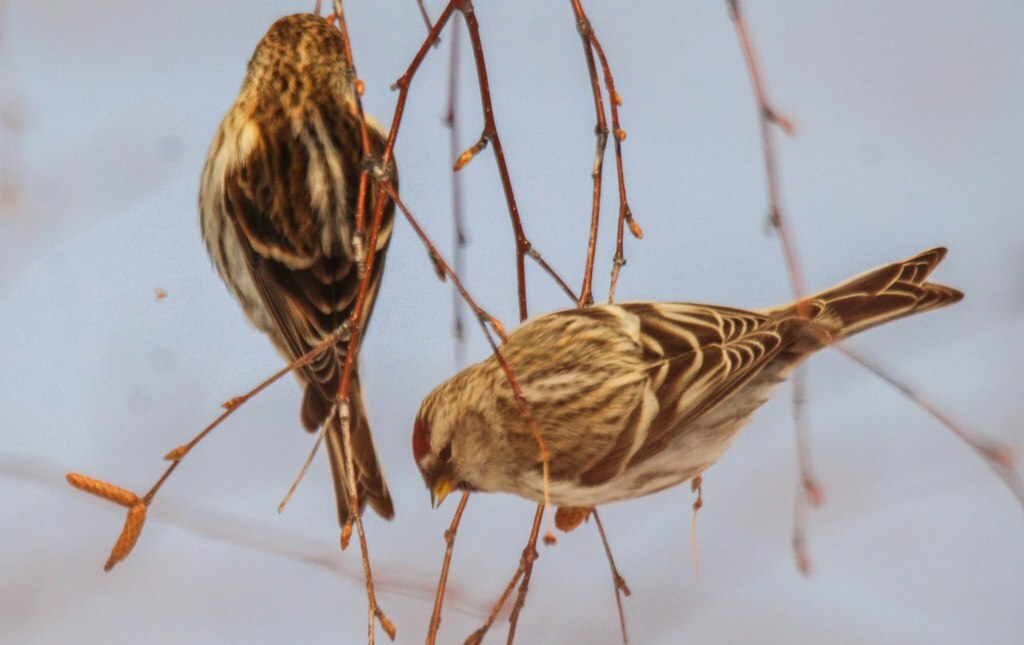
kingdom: Animalia
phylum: Chordata
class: Aves
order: Passeriformes
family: Fringillidae
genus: Acanthis
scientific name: Acanthis hornemanni
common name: Arctic redpoll
